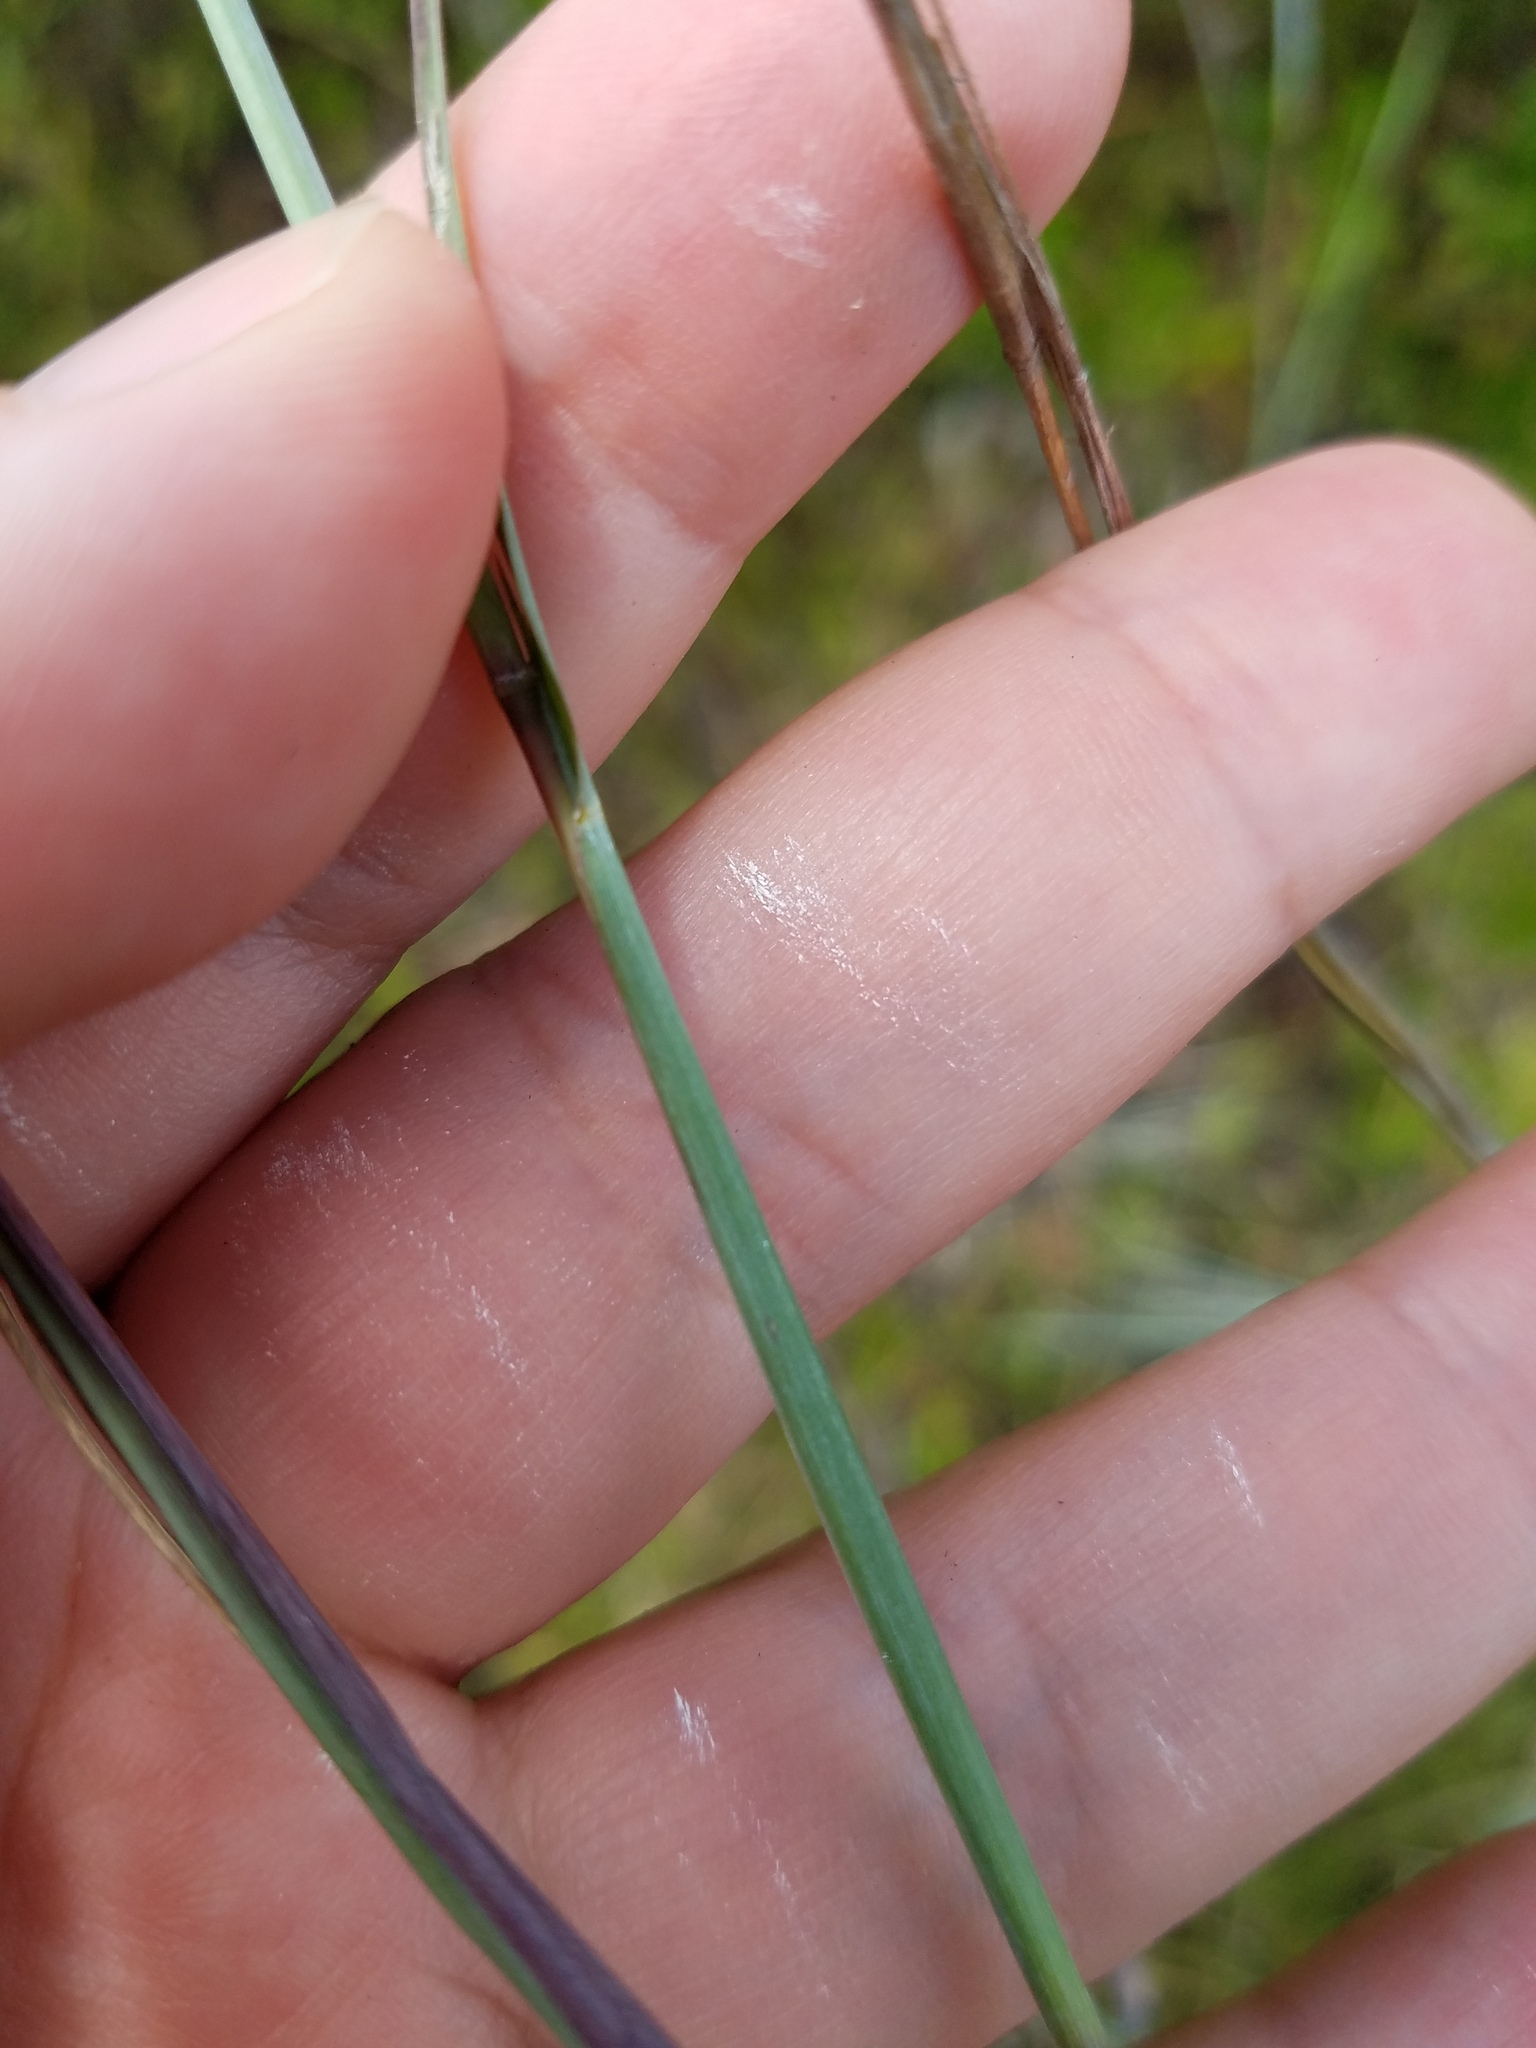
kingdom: Plantae
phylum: Tracheophyta
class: Liliopsida
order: Poales
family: Poaceae
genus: Andropogon
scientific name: Andropogon capillipes
